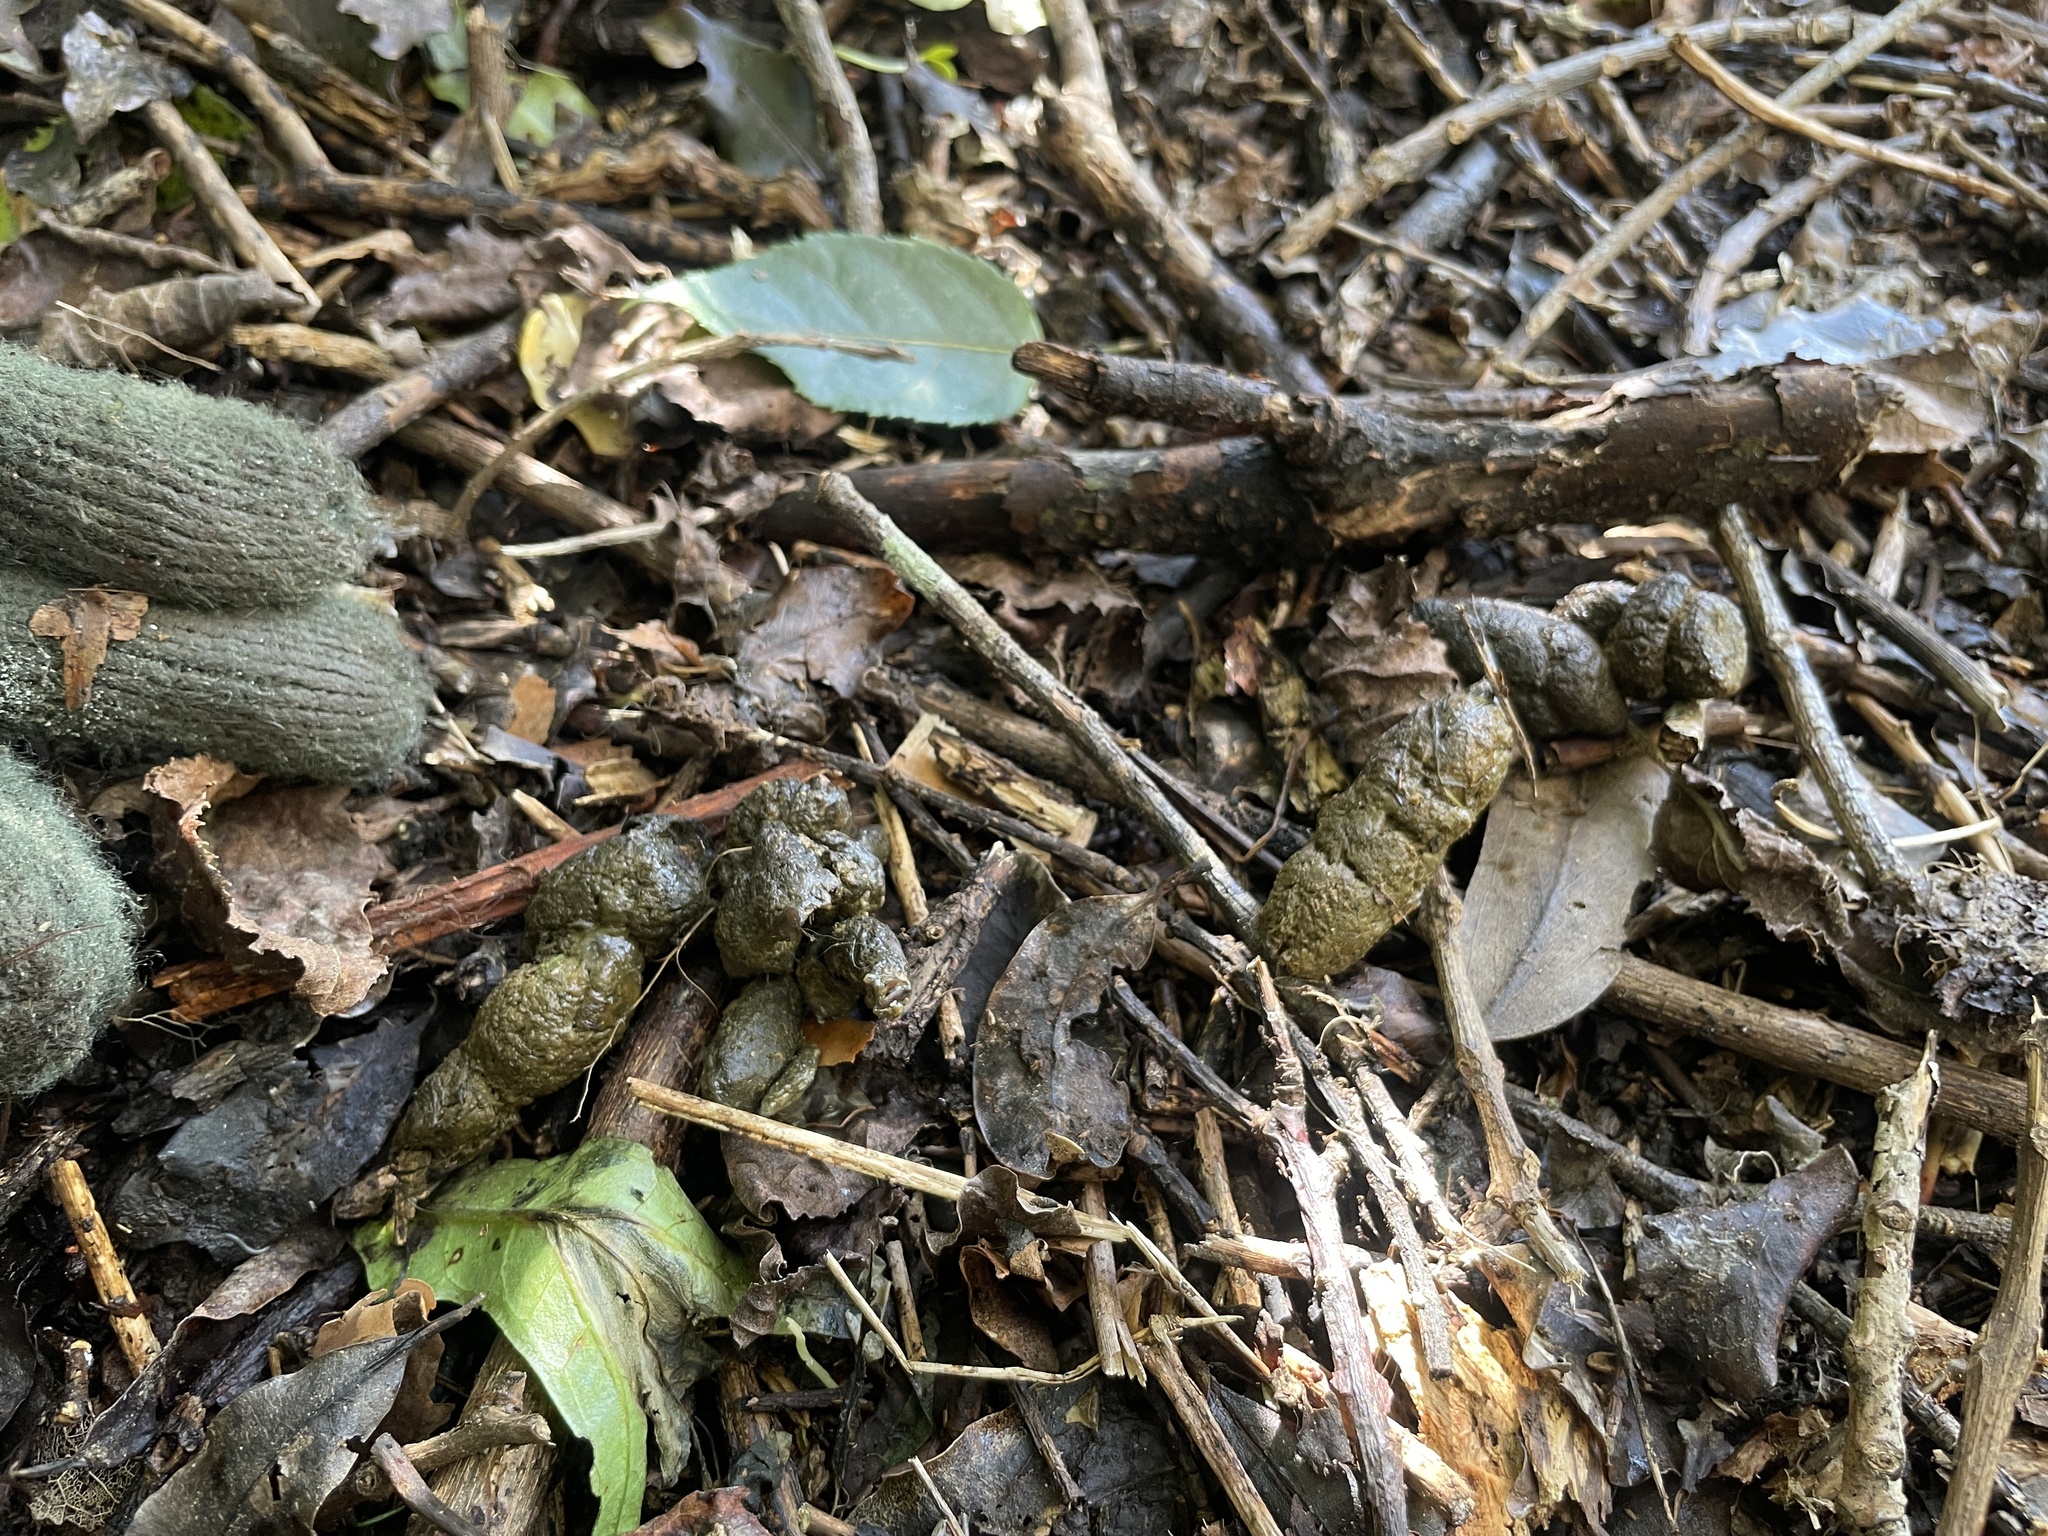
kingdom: Animalia
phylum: Chordata
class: Mammalia
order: Carnivora
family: Felidae
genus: Felis
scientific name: Felis catus
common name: Domestic cat
